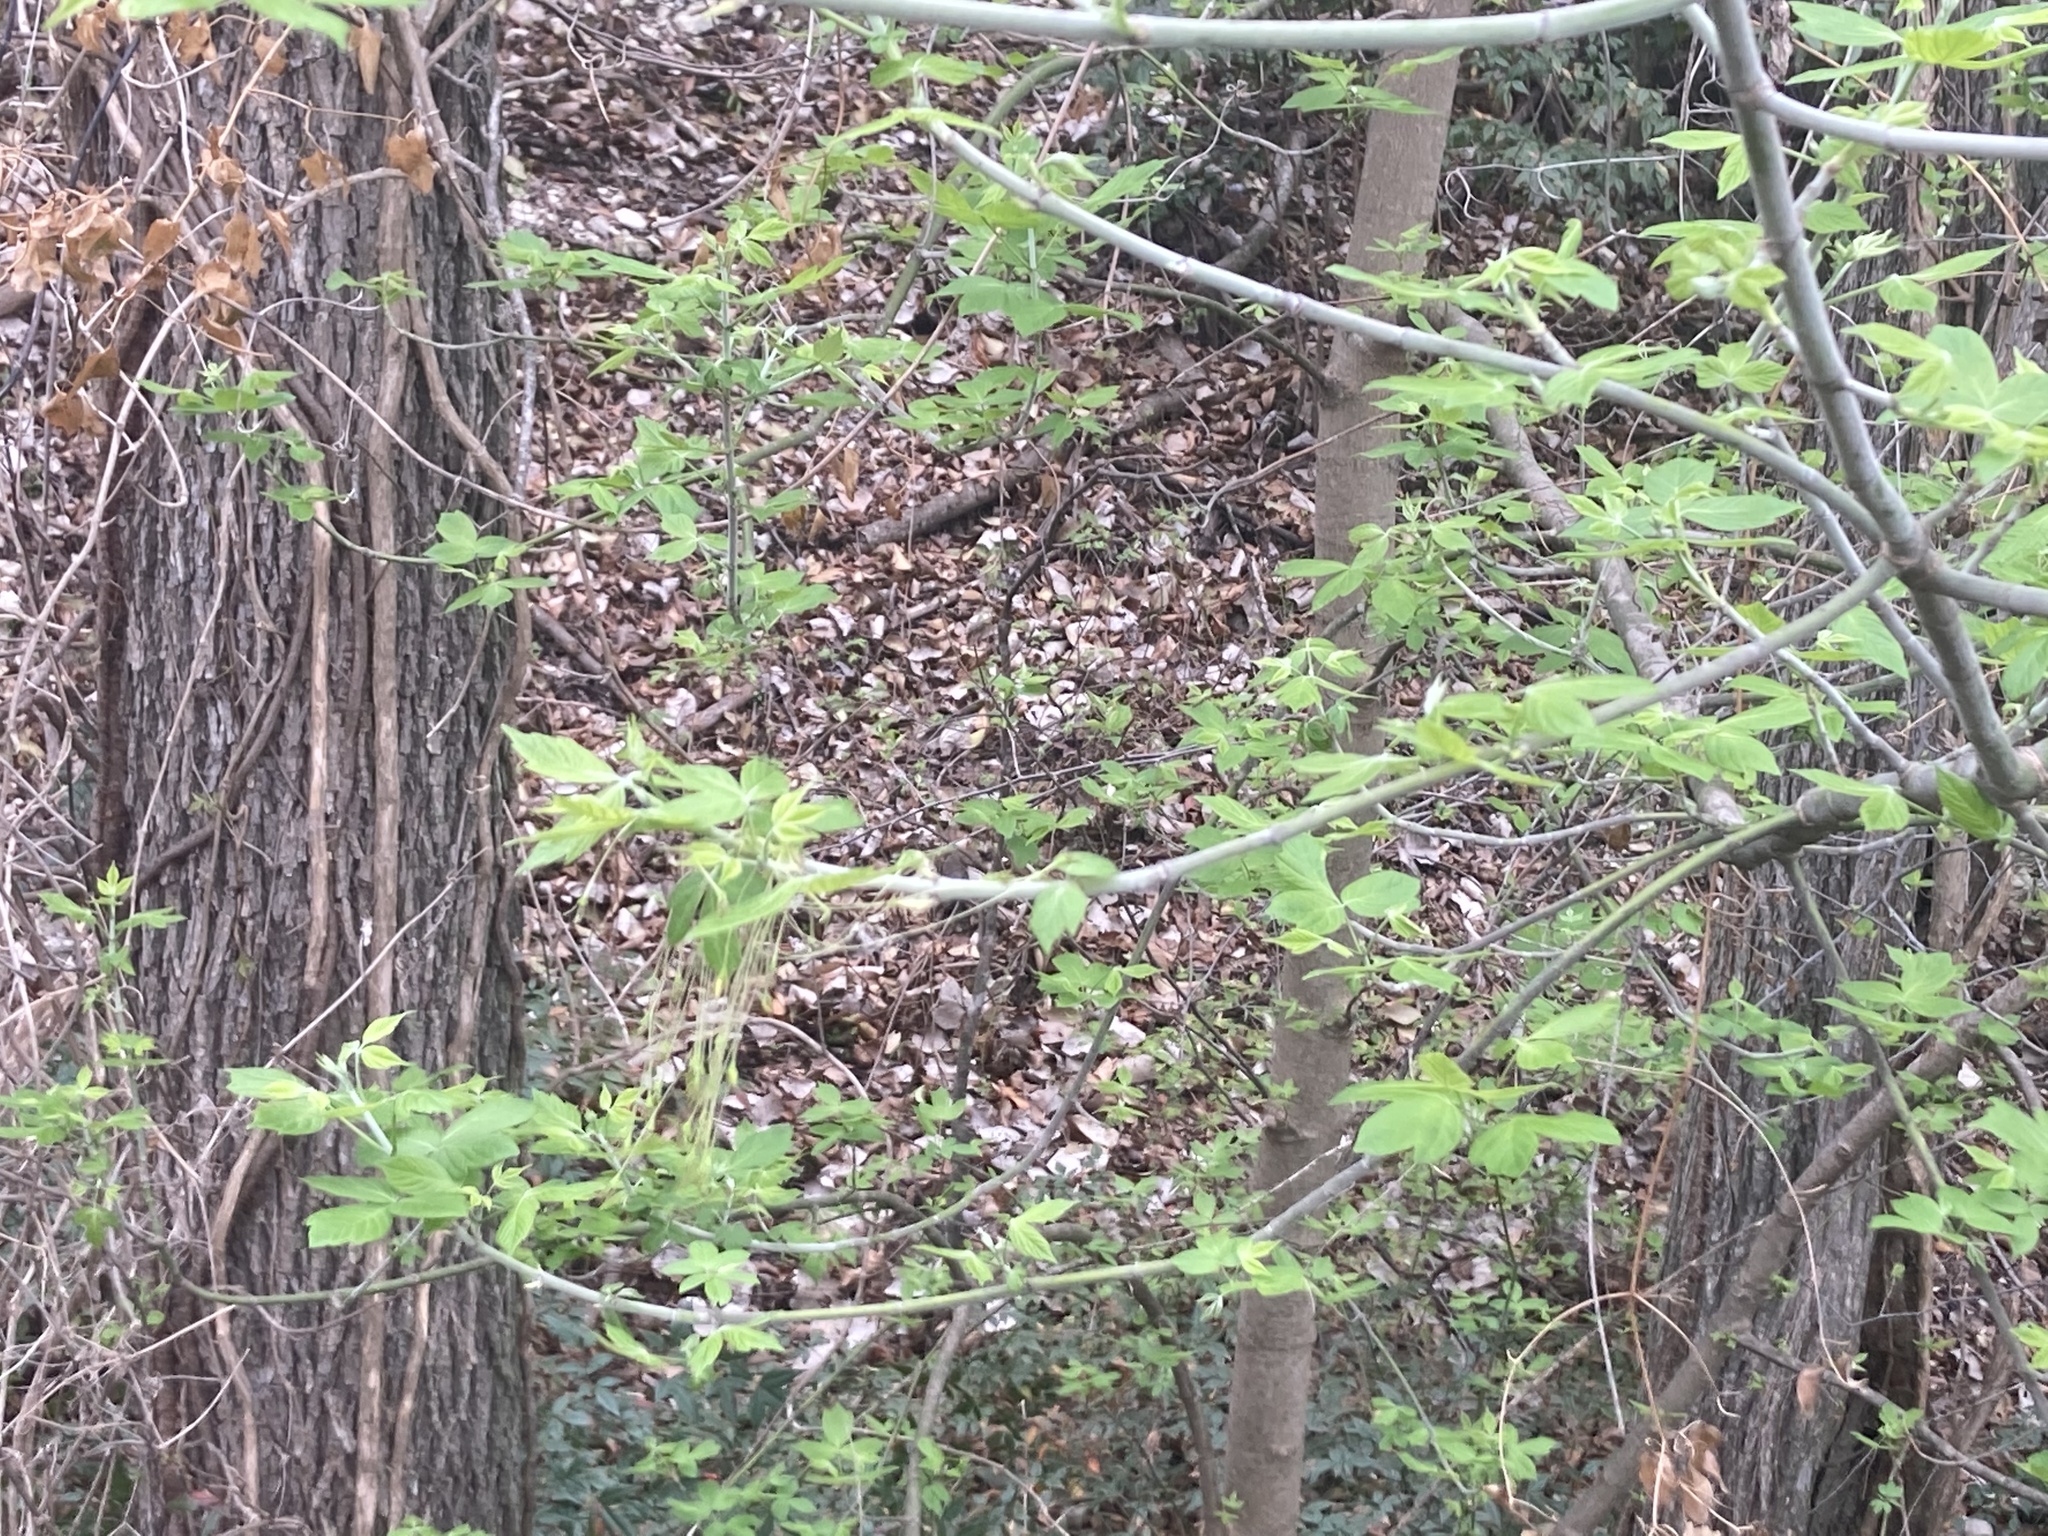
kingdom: Plantae
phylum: Tracheophyta
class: Magnoliopsida
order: Sapindales
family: Sapindaceae
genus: Acer
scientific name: Acer negundo
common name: Ashleaf maple
